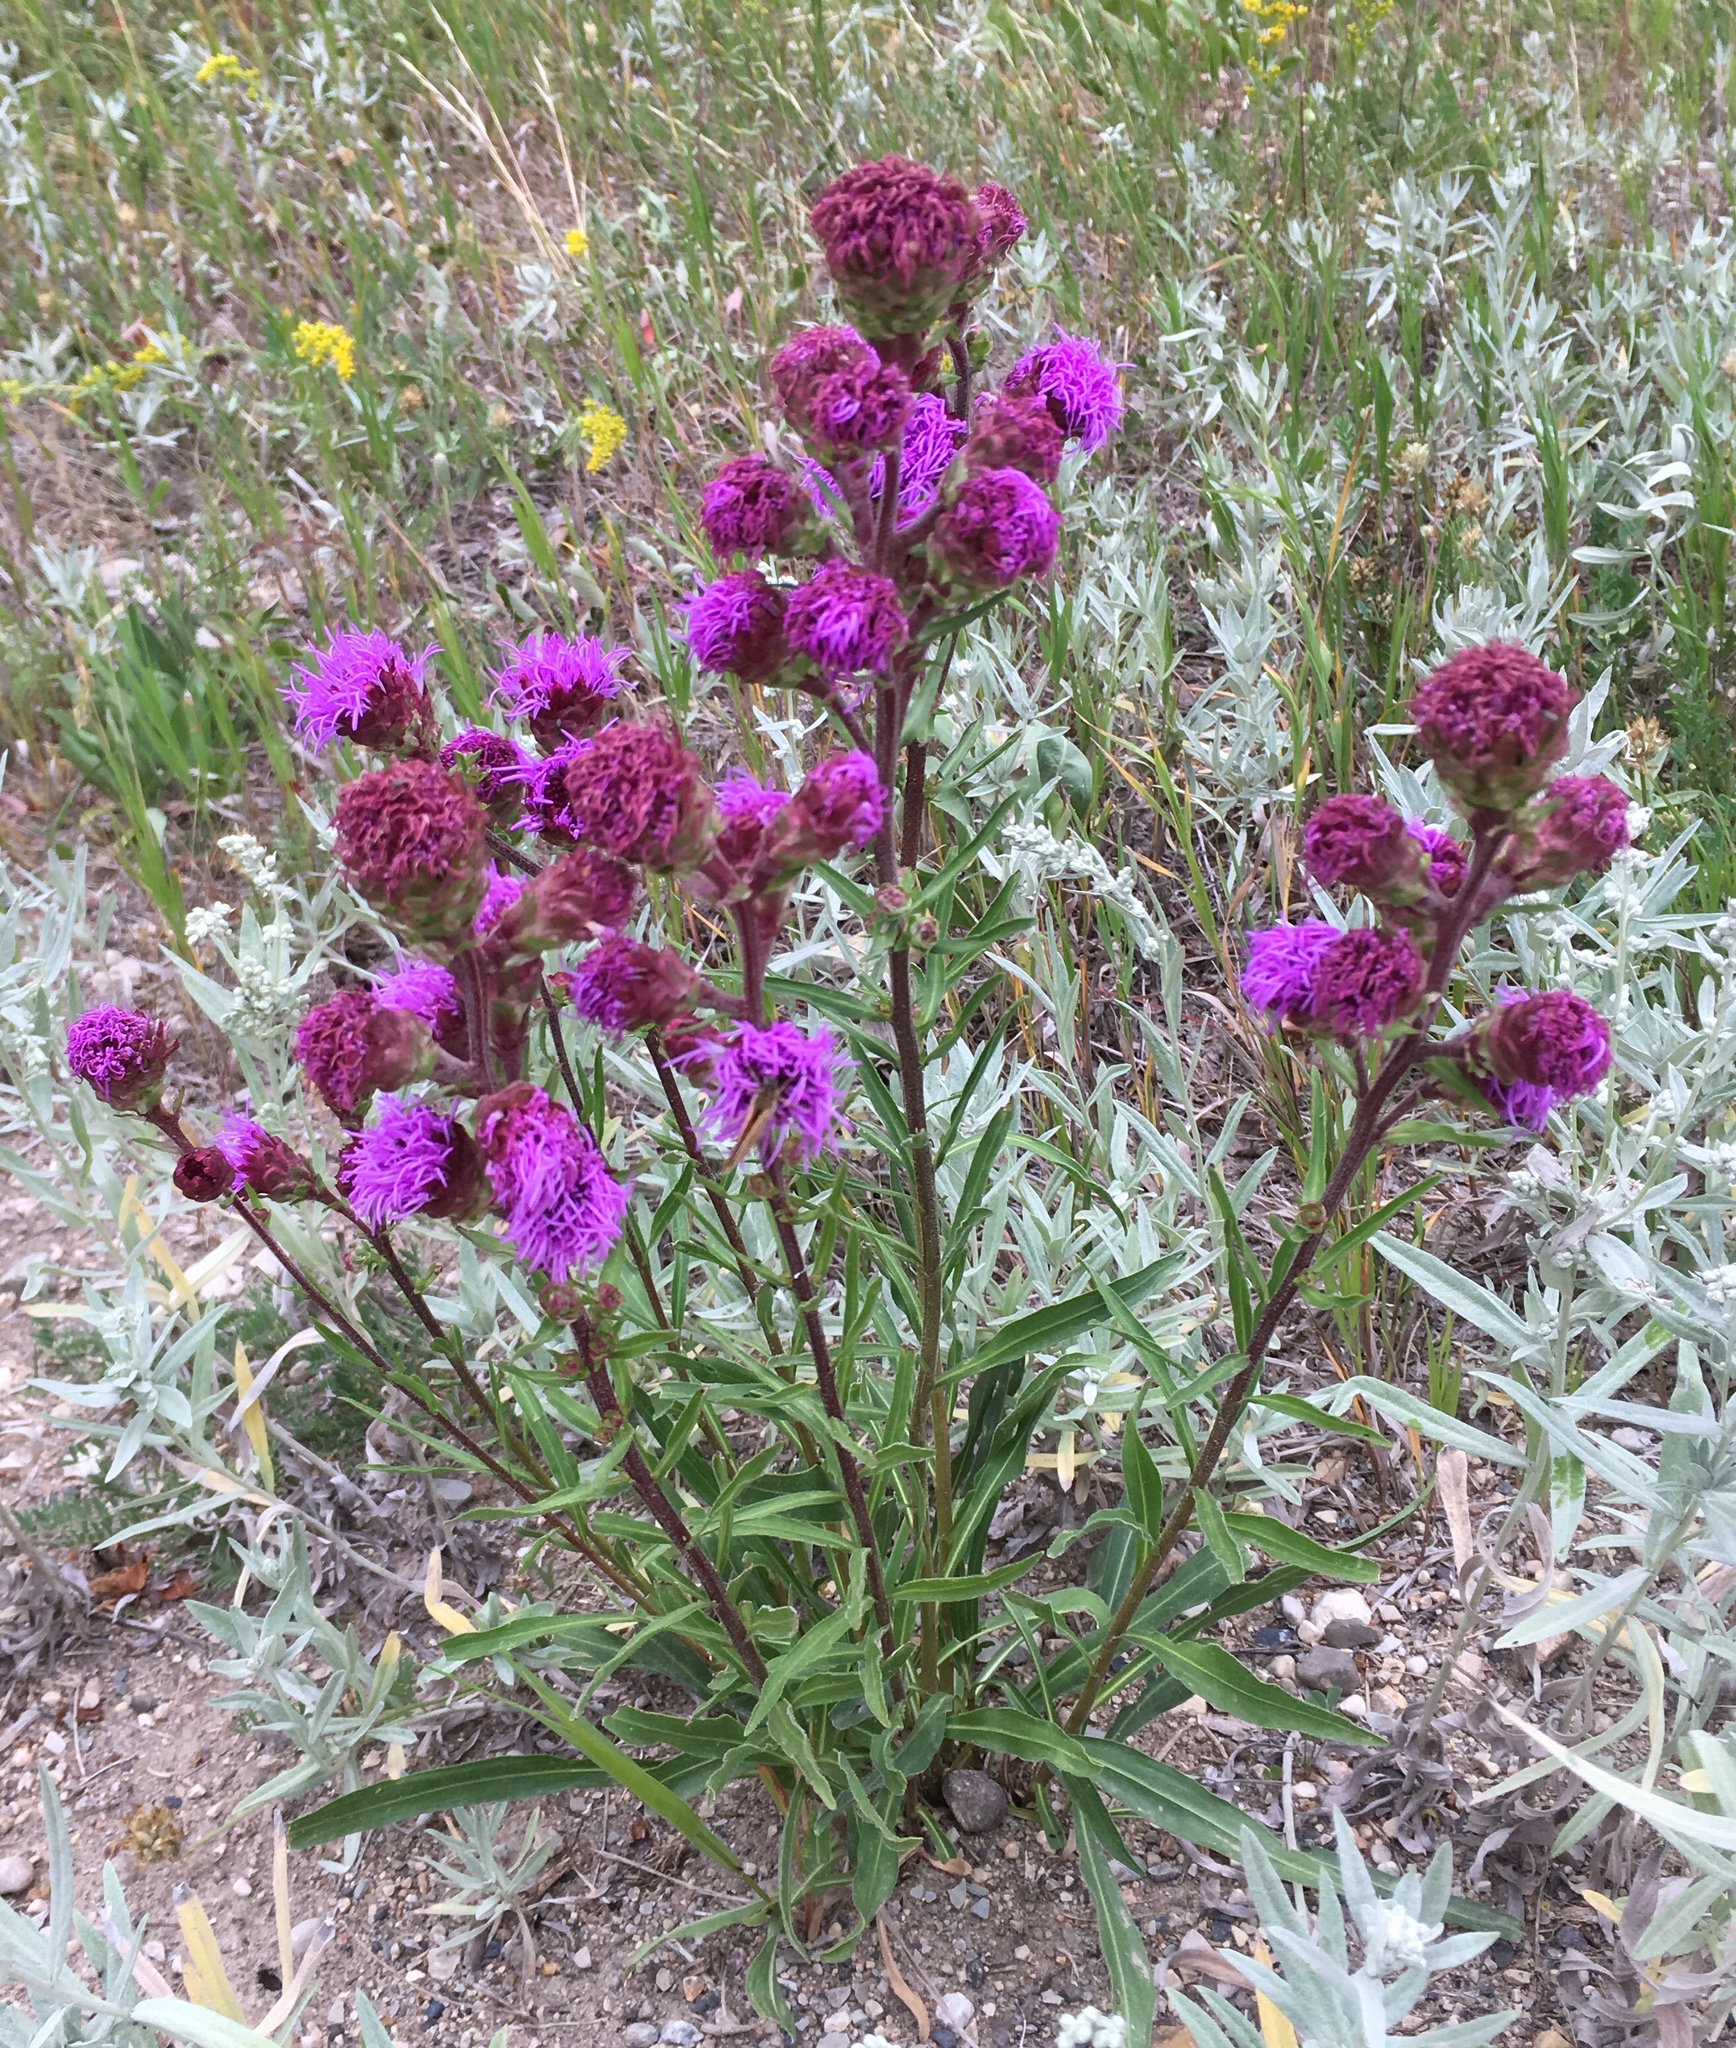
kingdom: Plantae
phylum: Tracheophyta
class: Magnoliopsida
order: Asterales
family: Asteraceae
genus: Liatris
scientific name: Liatris ligulistylis
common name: Northern plains gayfeather
